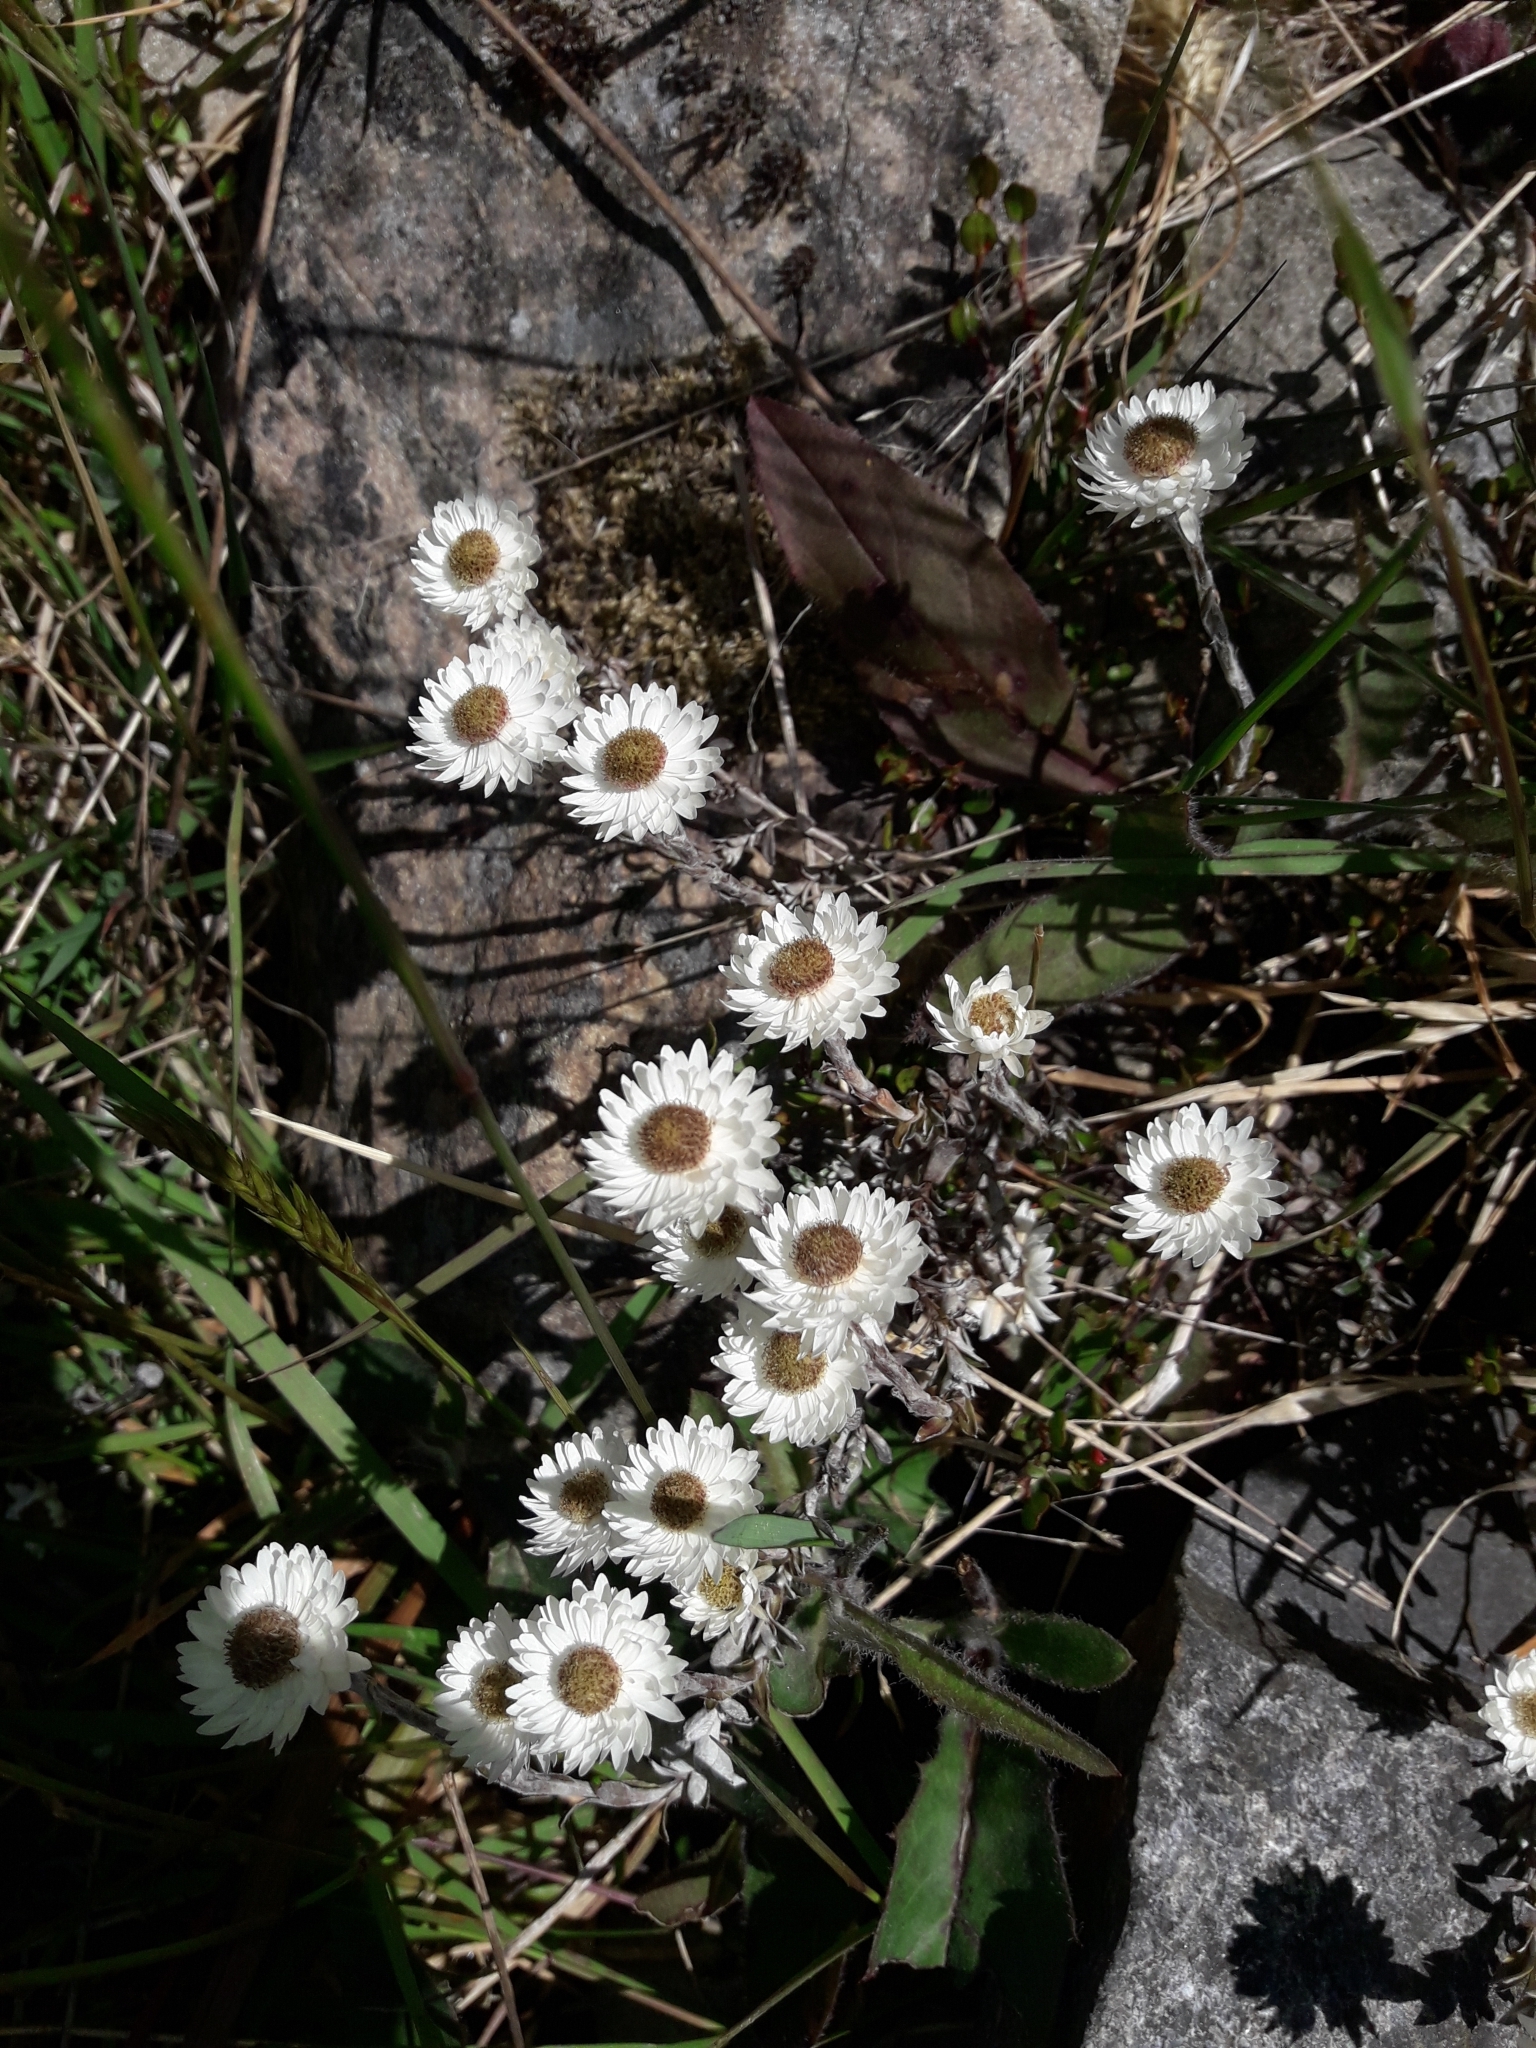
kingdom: Plantae
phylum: Tracheophyta
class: Magnoliopsida
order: Asterales
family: Asteraceae
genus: Anaphalioides
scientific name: Anaphalioides bellidioides
